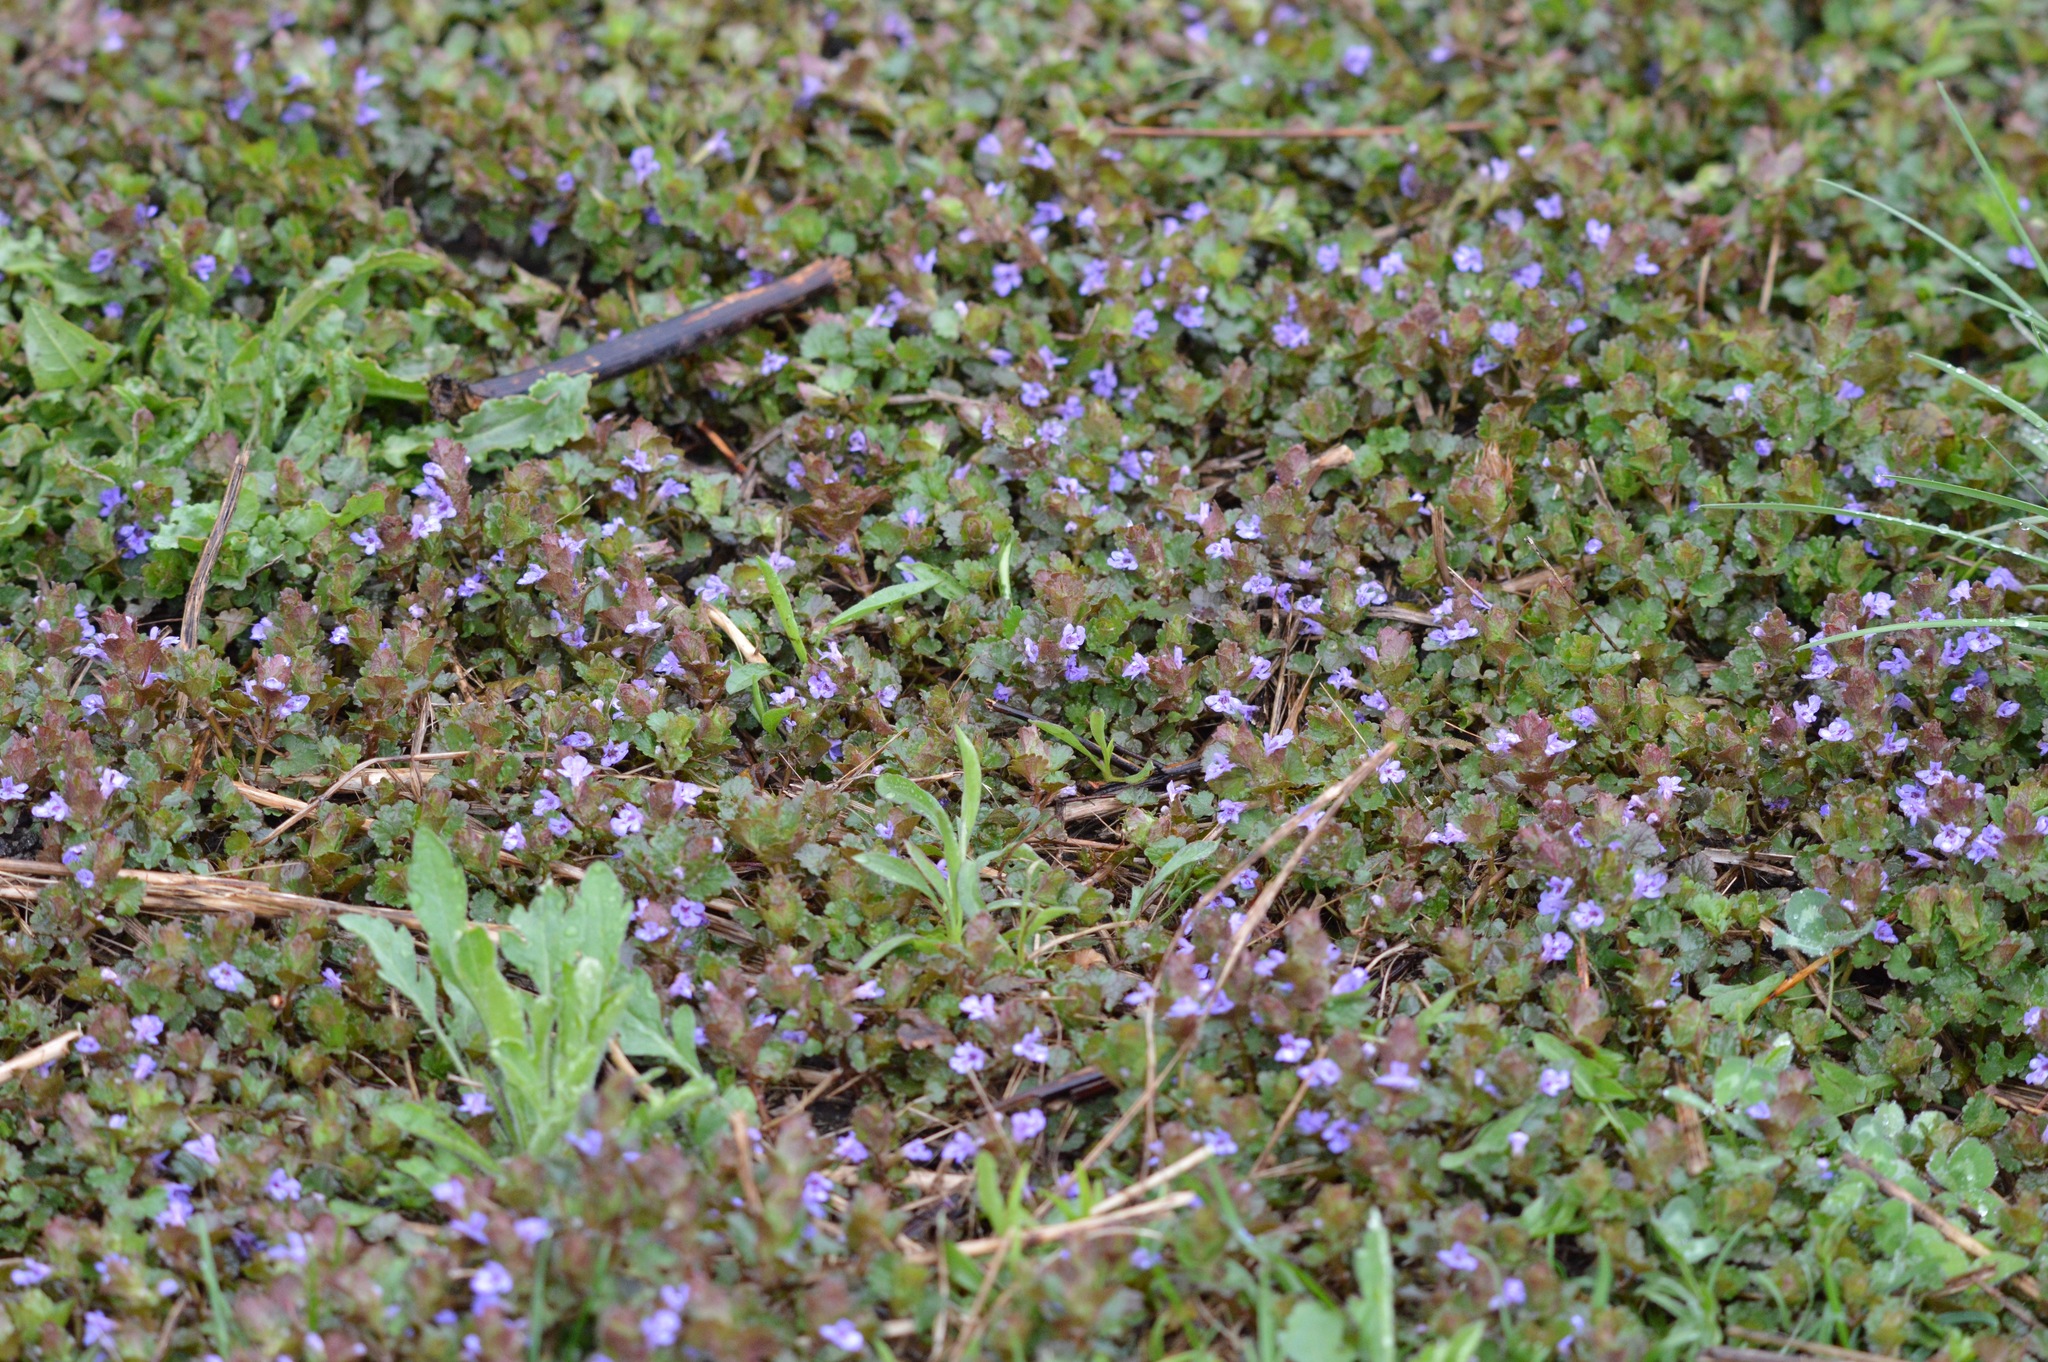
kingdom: Plantae
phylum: Tracheophyta
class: Magnoliopsida
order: Lamiales
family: Lamiaceae
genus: Glechoma
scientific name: Glechoma hederacea
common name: Ground ivy
